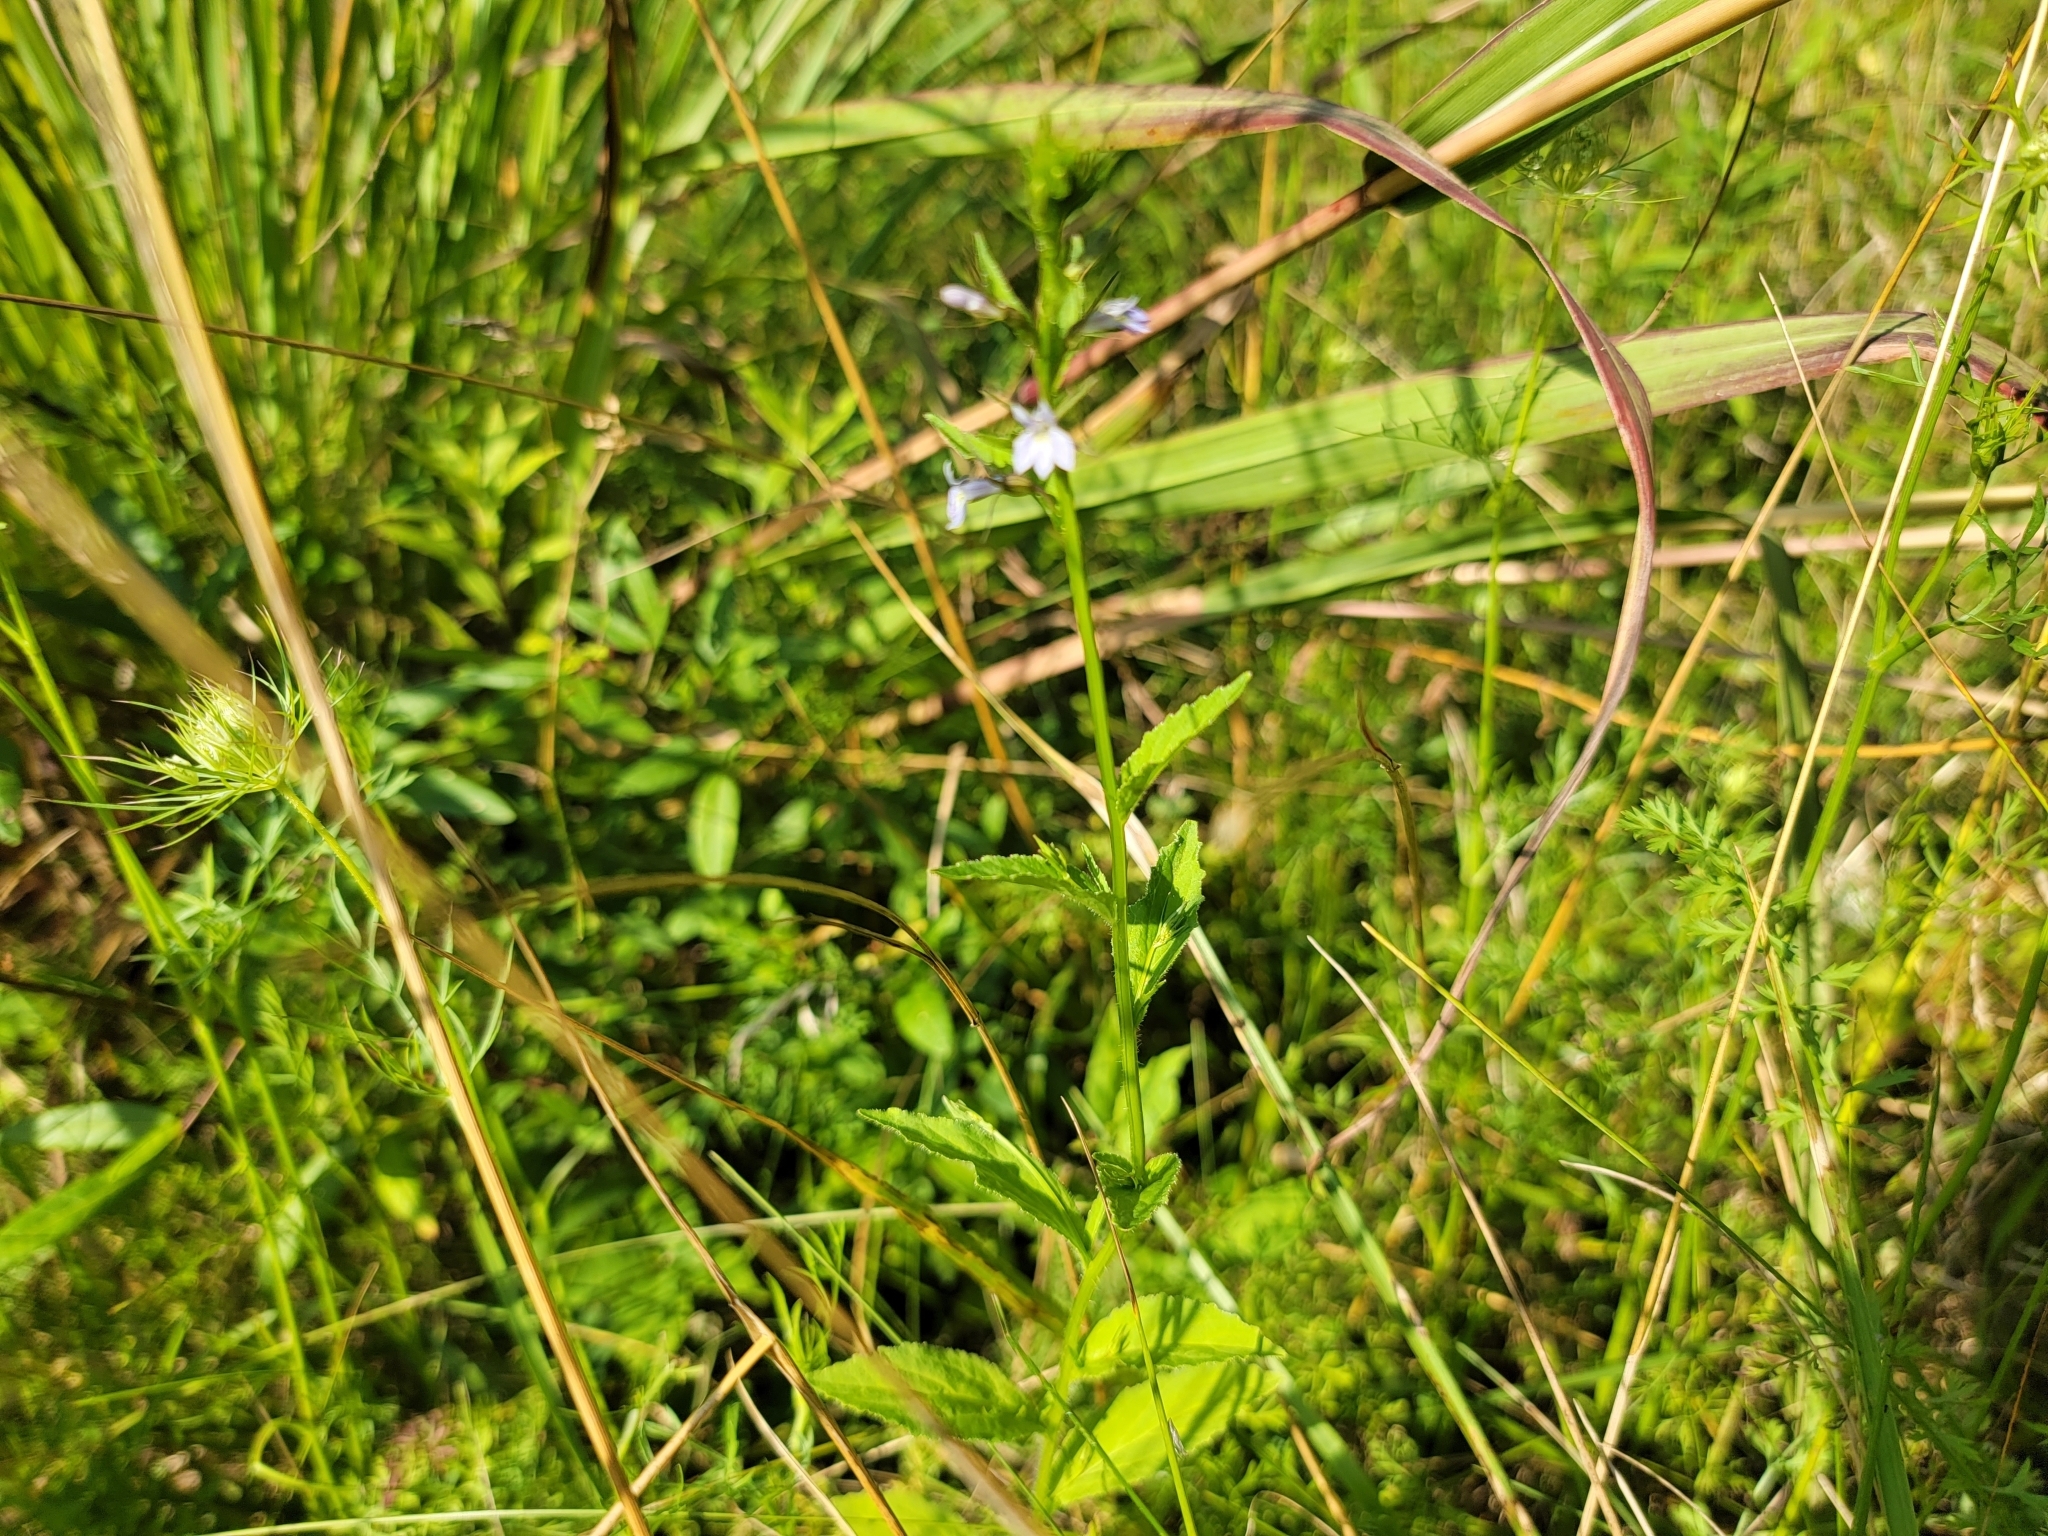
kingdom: Plantae
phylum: Tracheophyta
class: Magnoliopsida
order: Asterales
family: Campanulaceae
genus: Lobelia
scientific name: Lobelia inflata
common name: Indian tobacco
